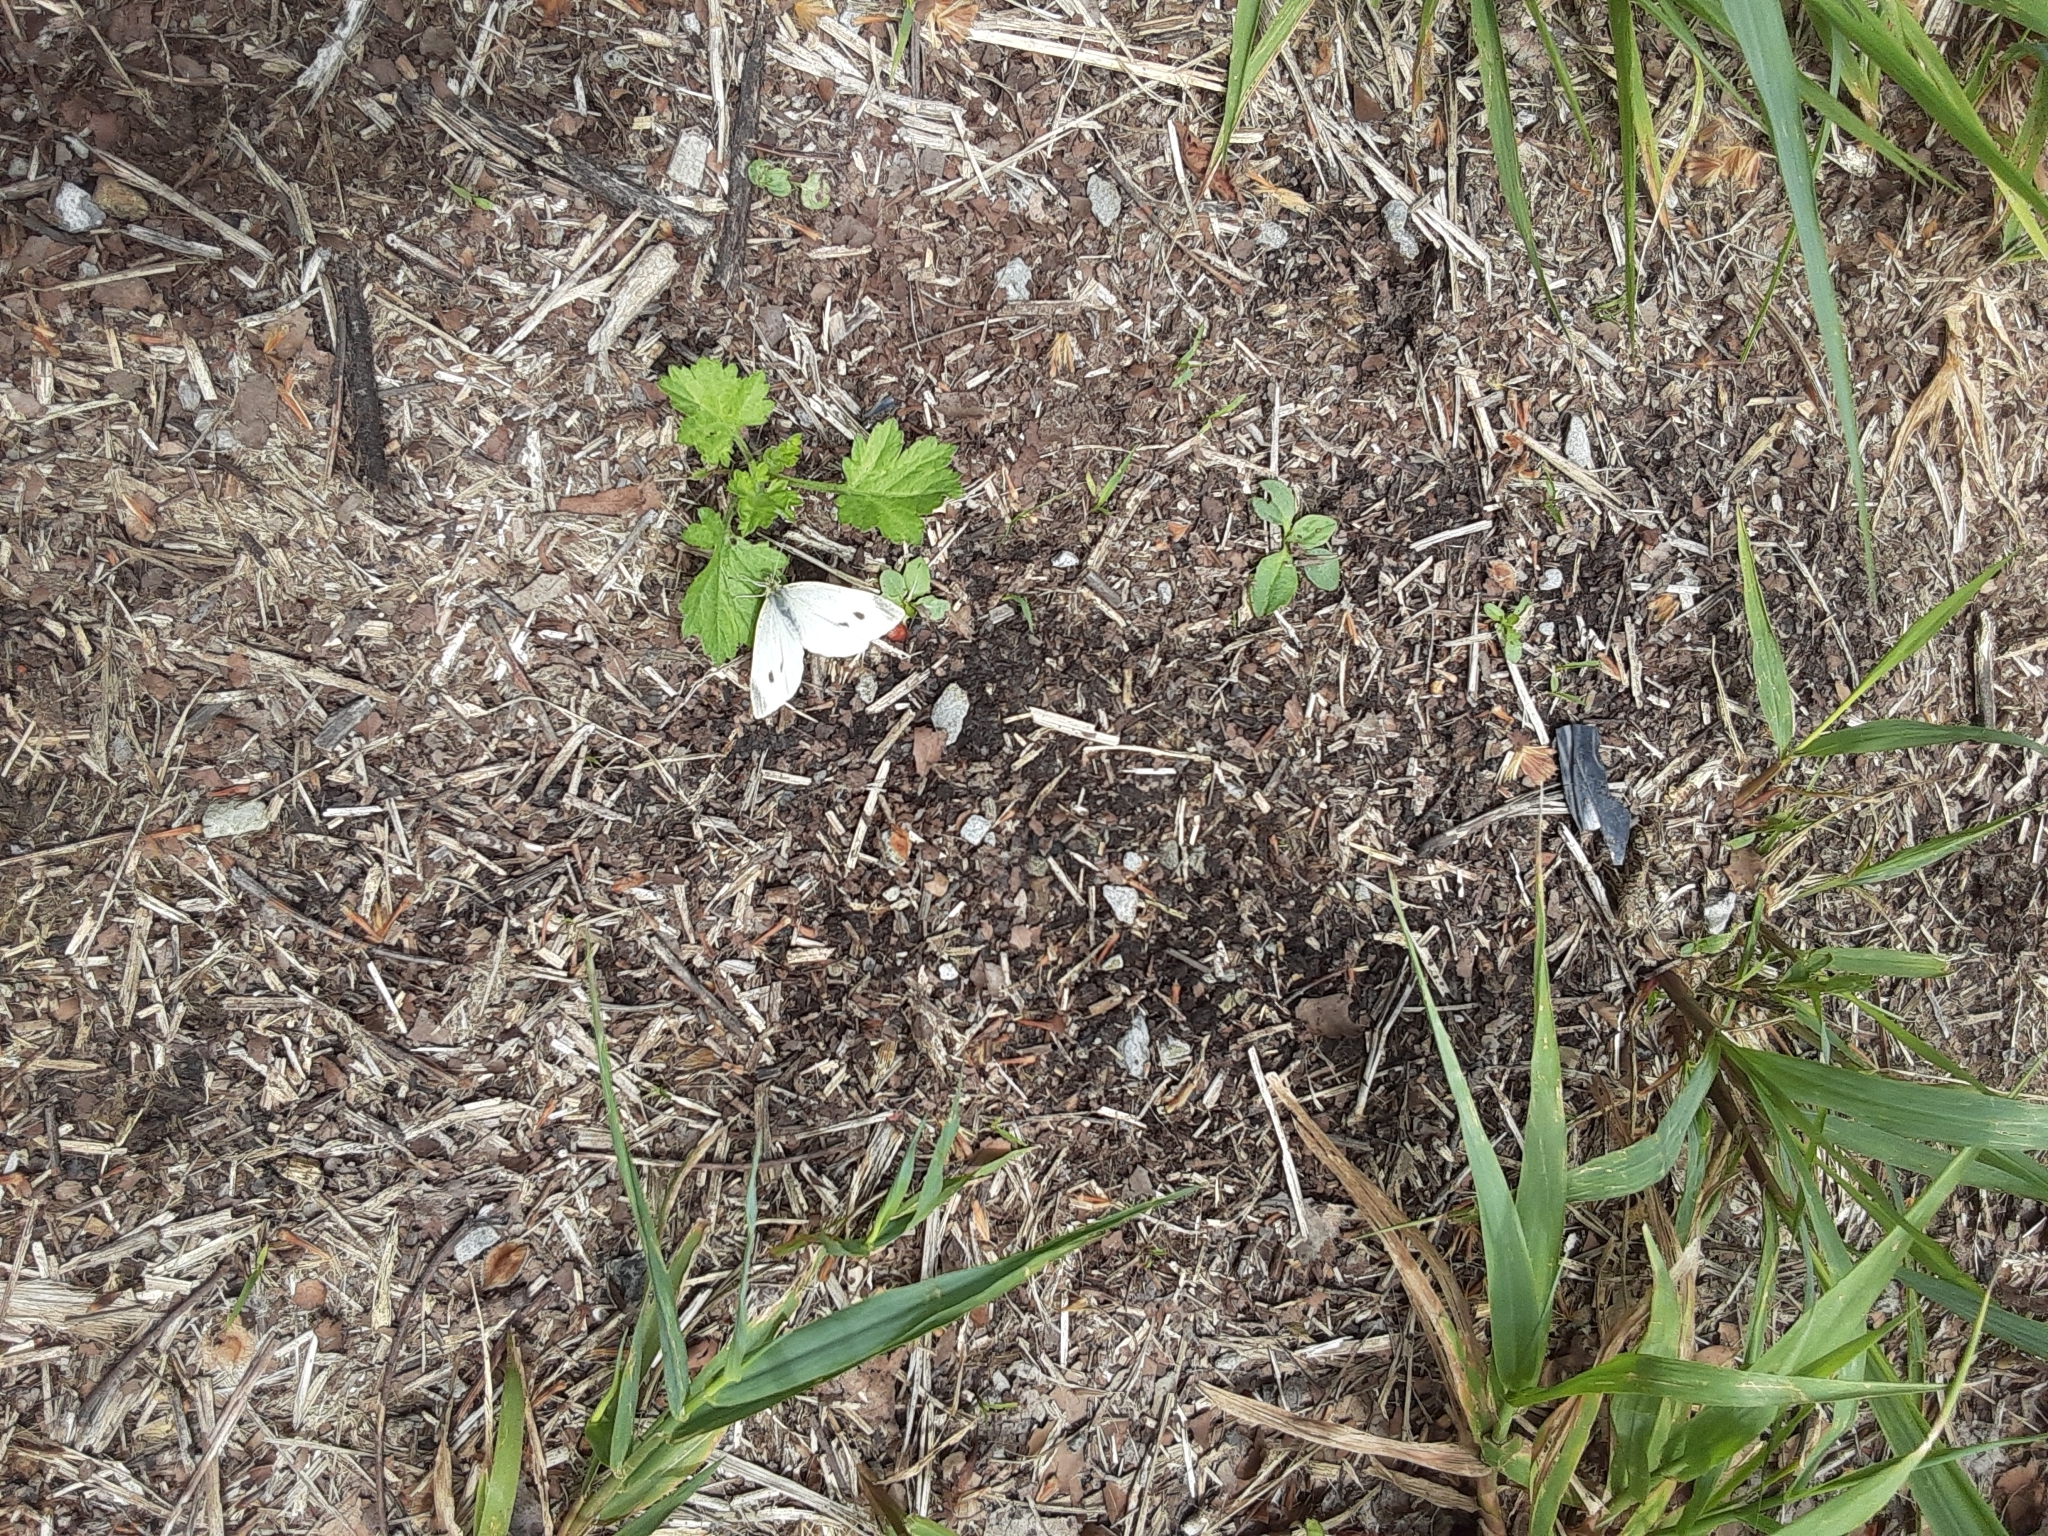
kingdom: Animalia
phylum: Arthropoda
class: Insecta
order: Lepidoptera
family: Pieridae
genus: Pieris
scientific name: Pieris rapae
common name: Small white
